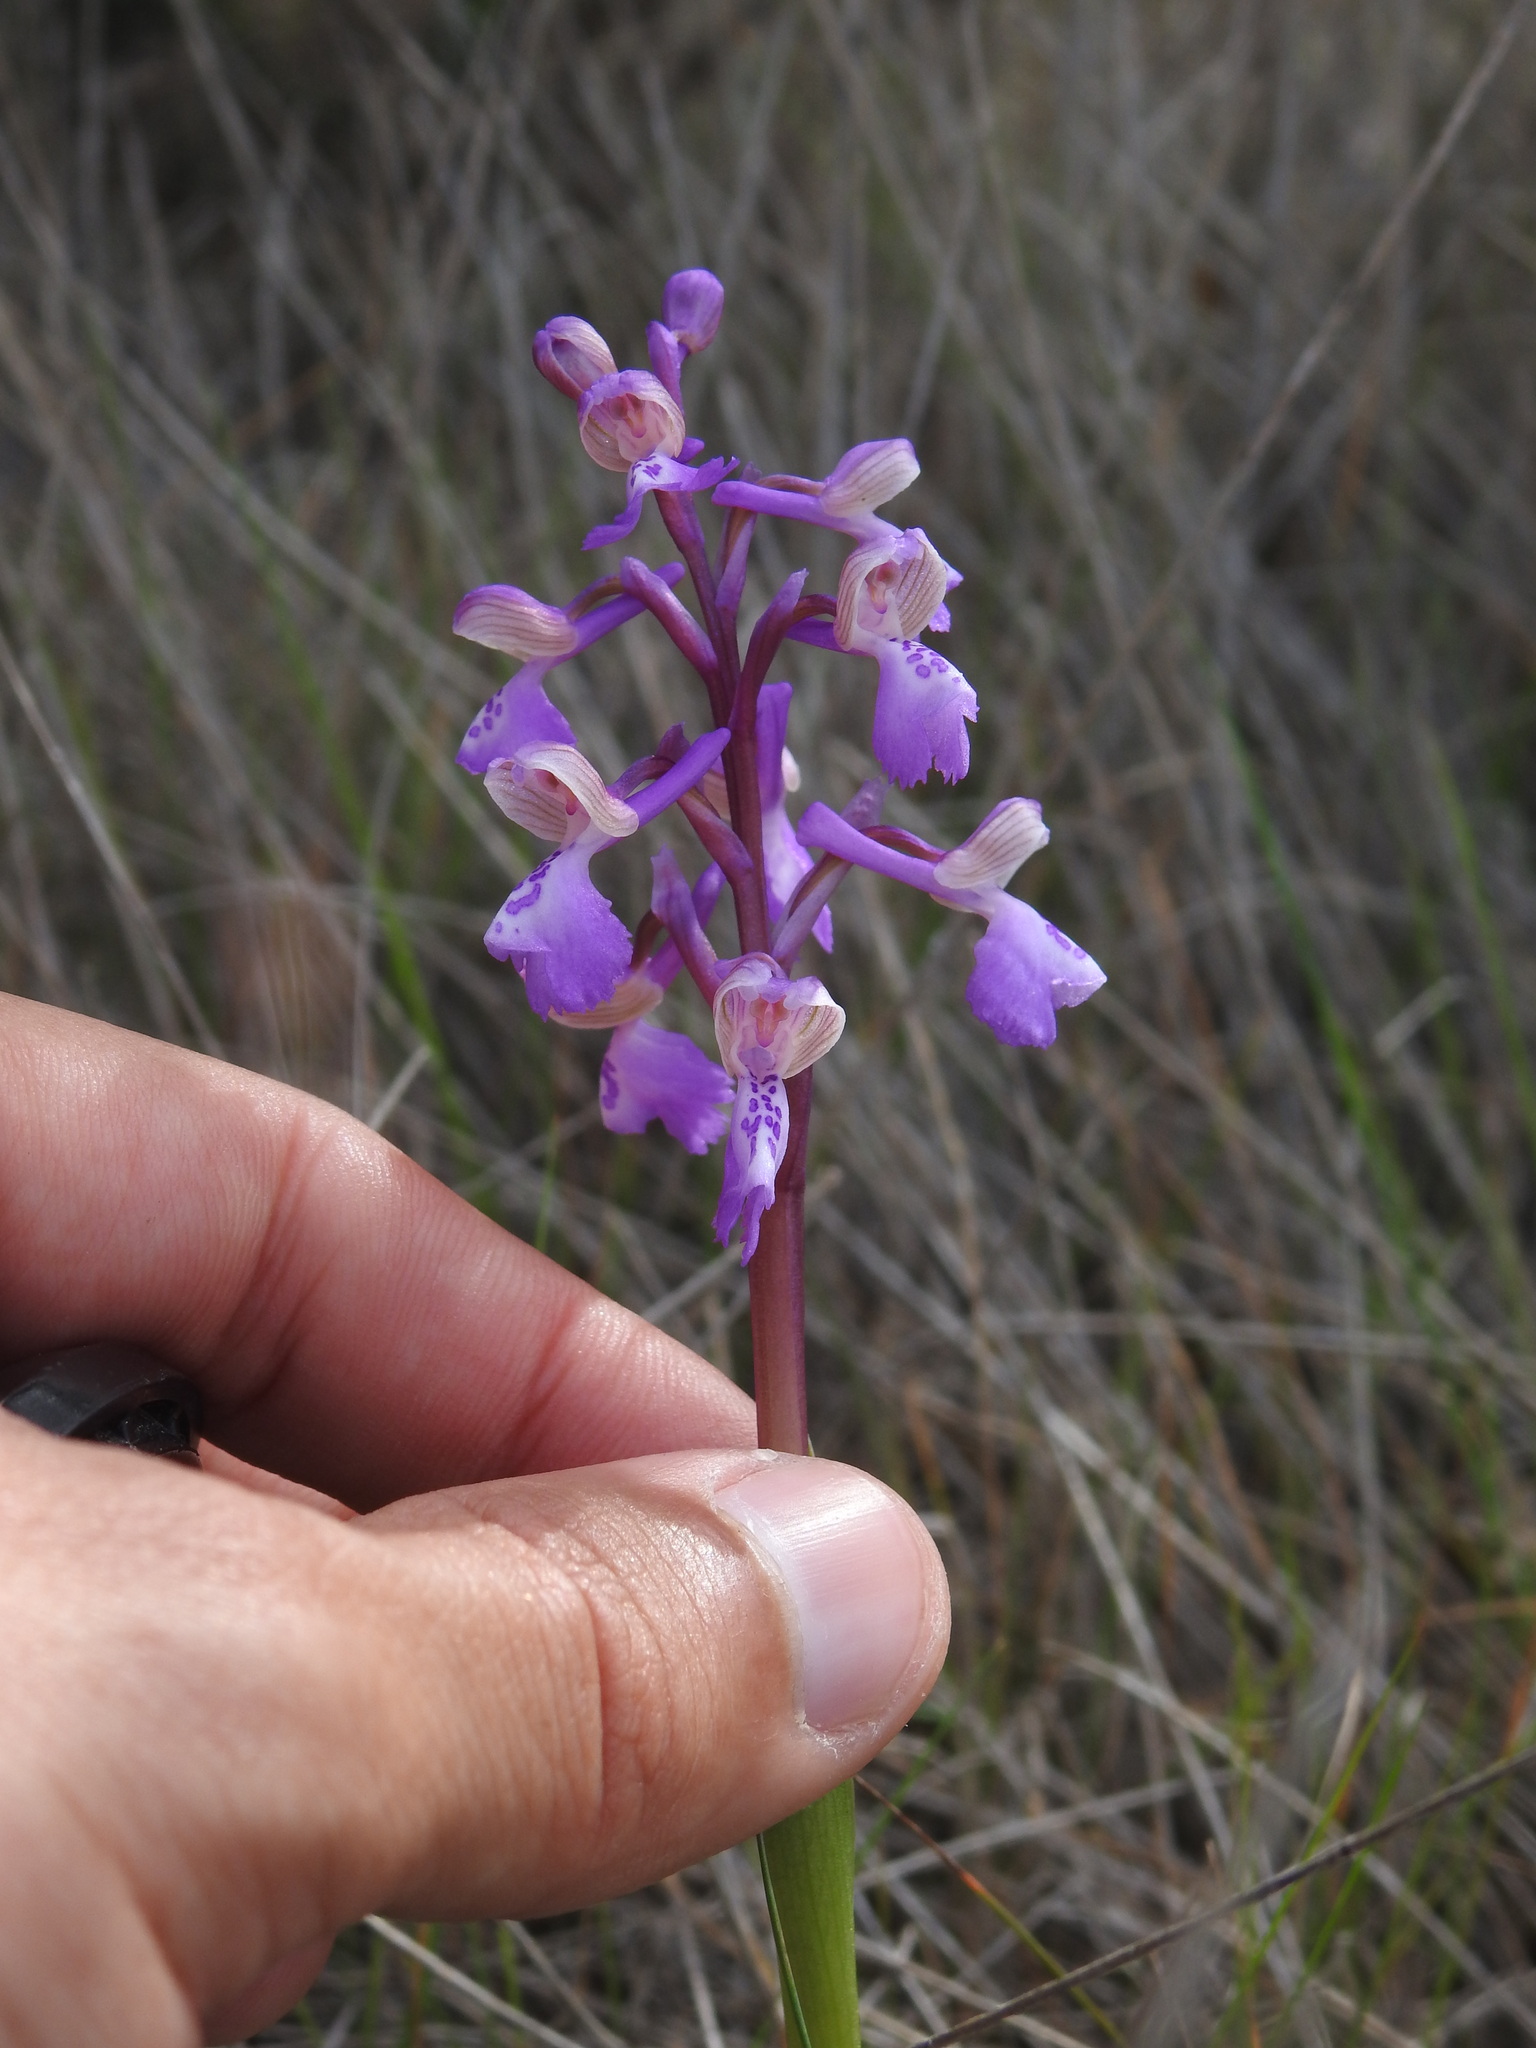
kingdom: Plantae
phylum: Tracheophyta
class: Liliopsida
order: Asparagales
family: Orchidaceae
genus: Anacamptis
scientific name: Anacamptis morio
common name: Green-winged orchid
